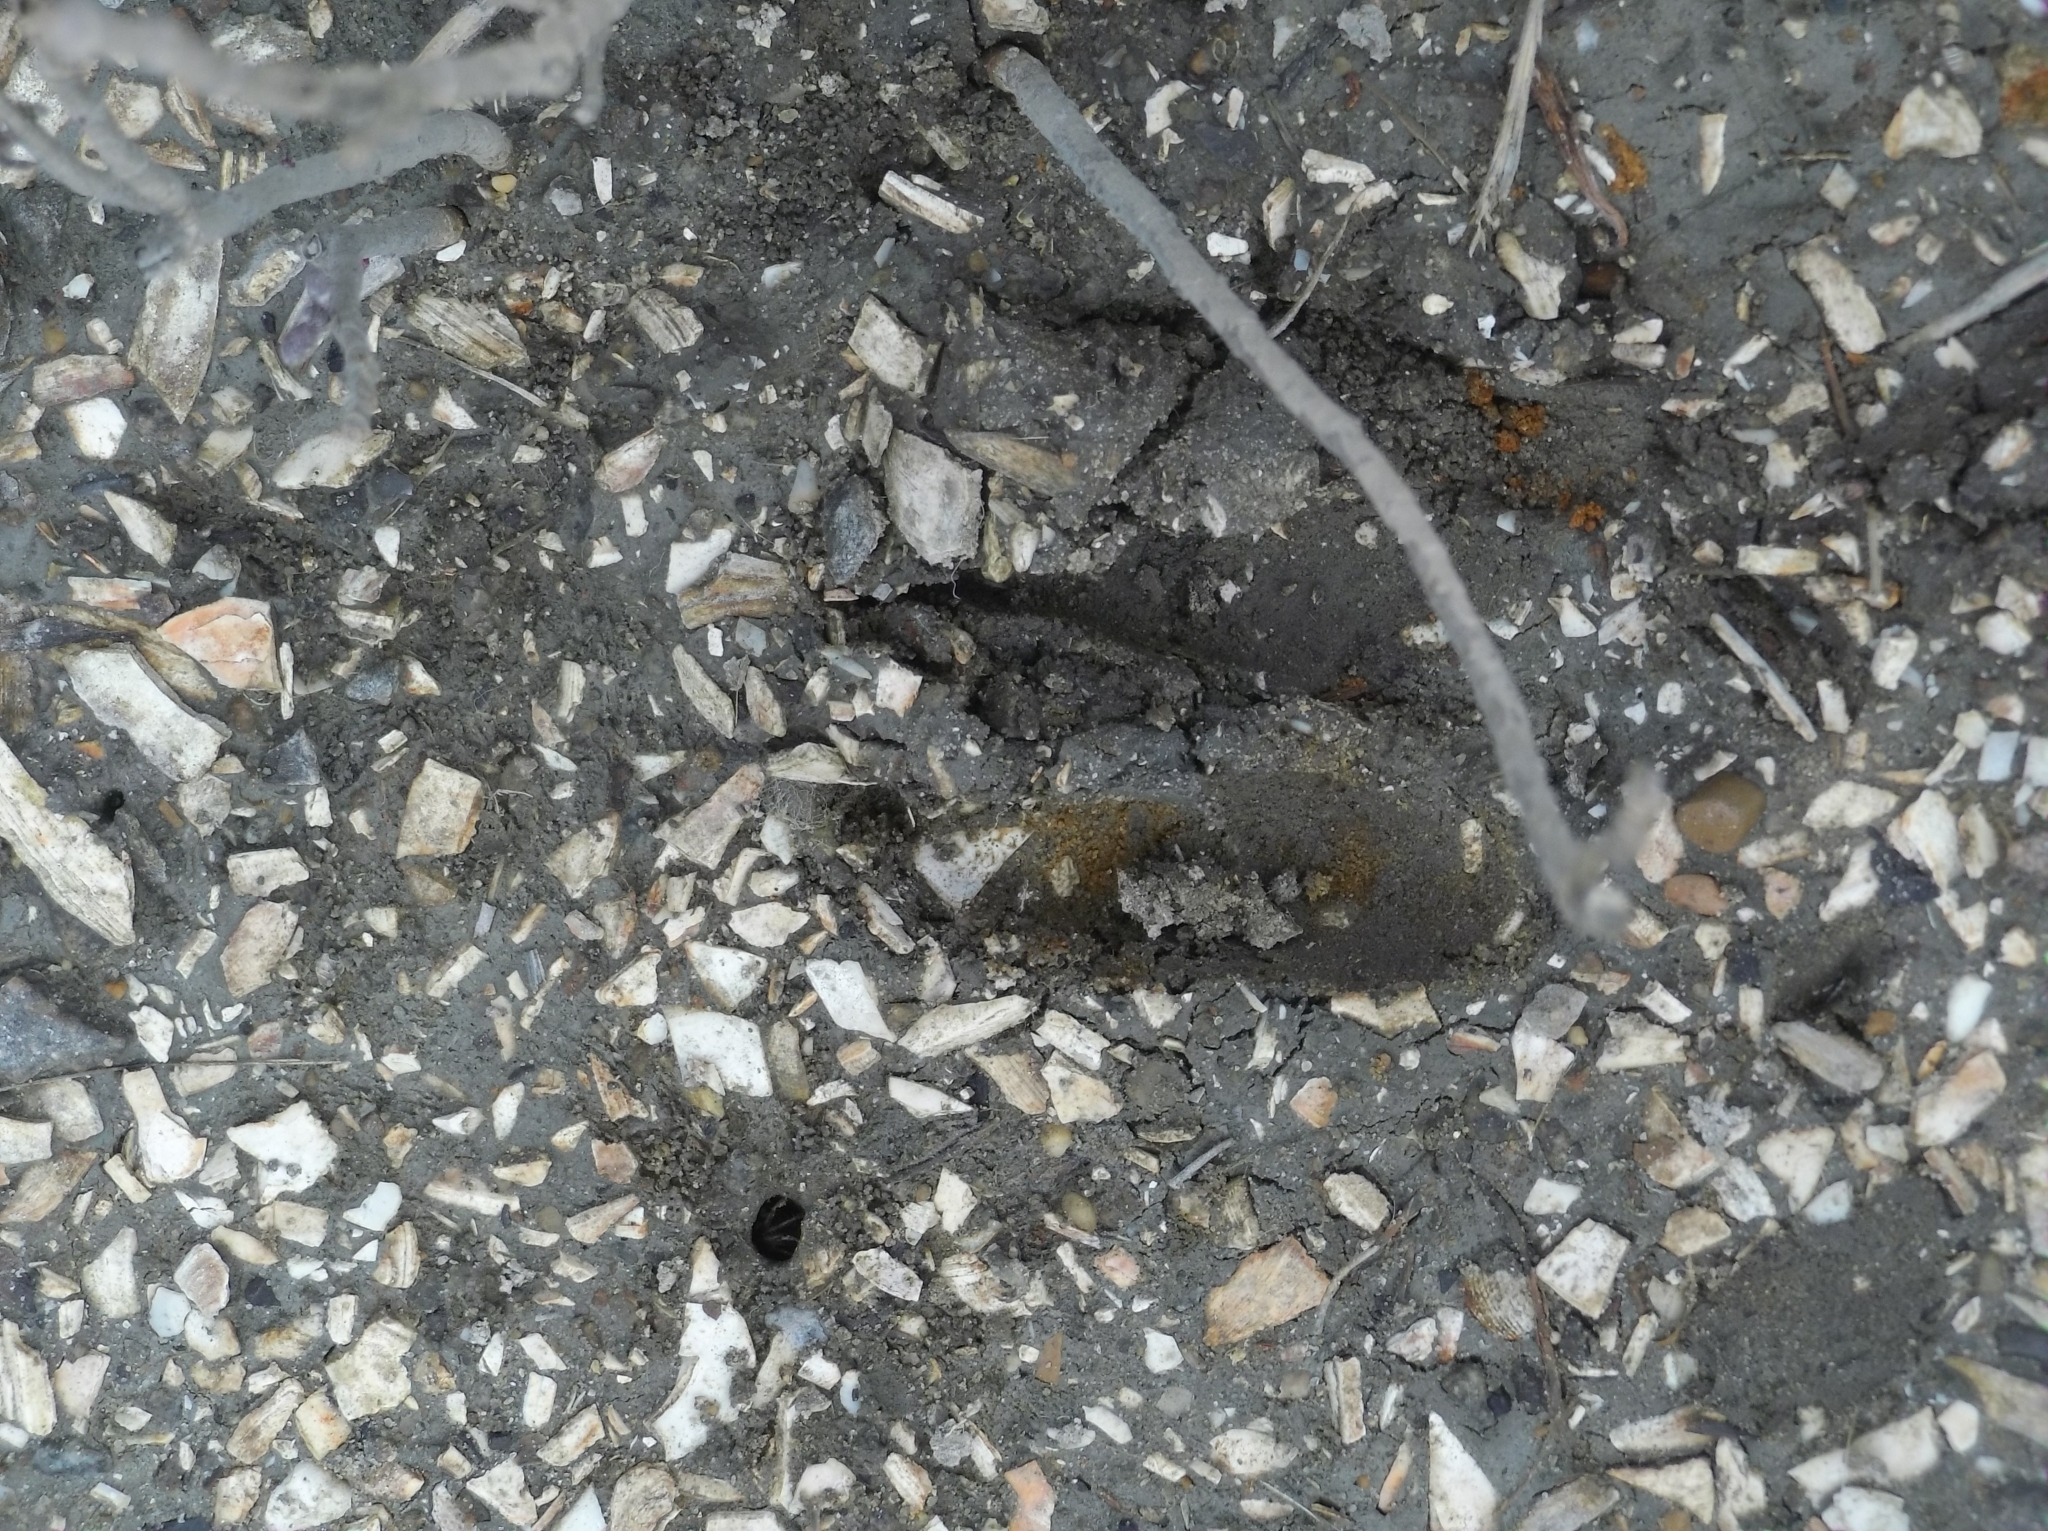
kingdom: Animalia
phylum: Chordata
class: Mammalia
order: Artiodactyla
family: Cervidae
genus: Odocoileus
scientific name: Odocoileus virginianus
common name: White-tailed deer
